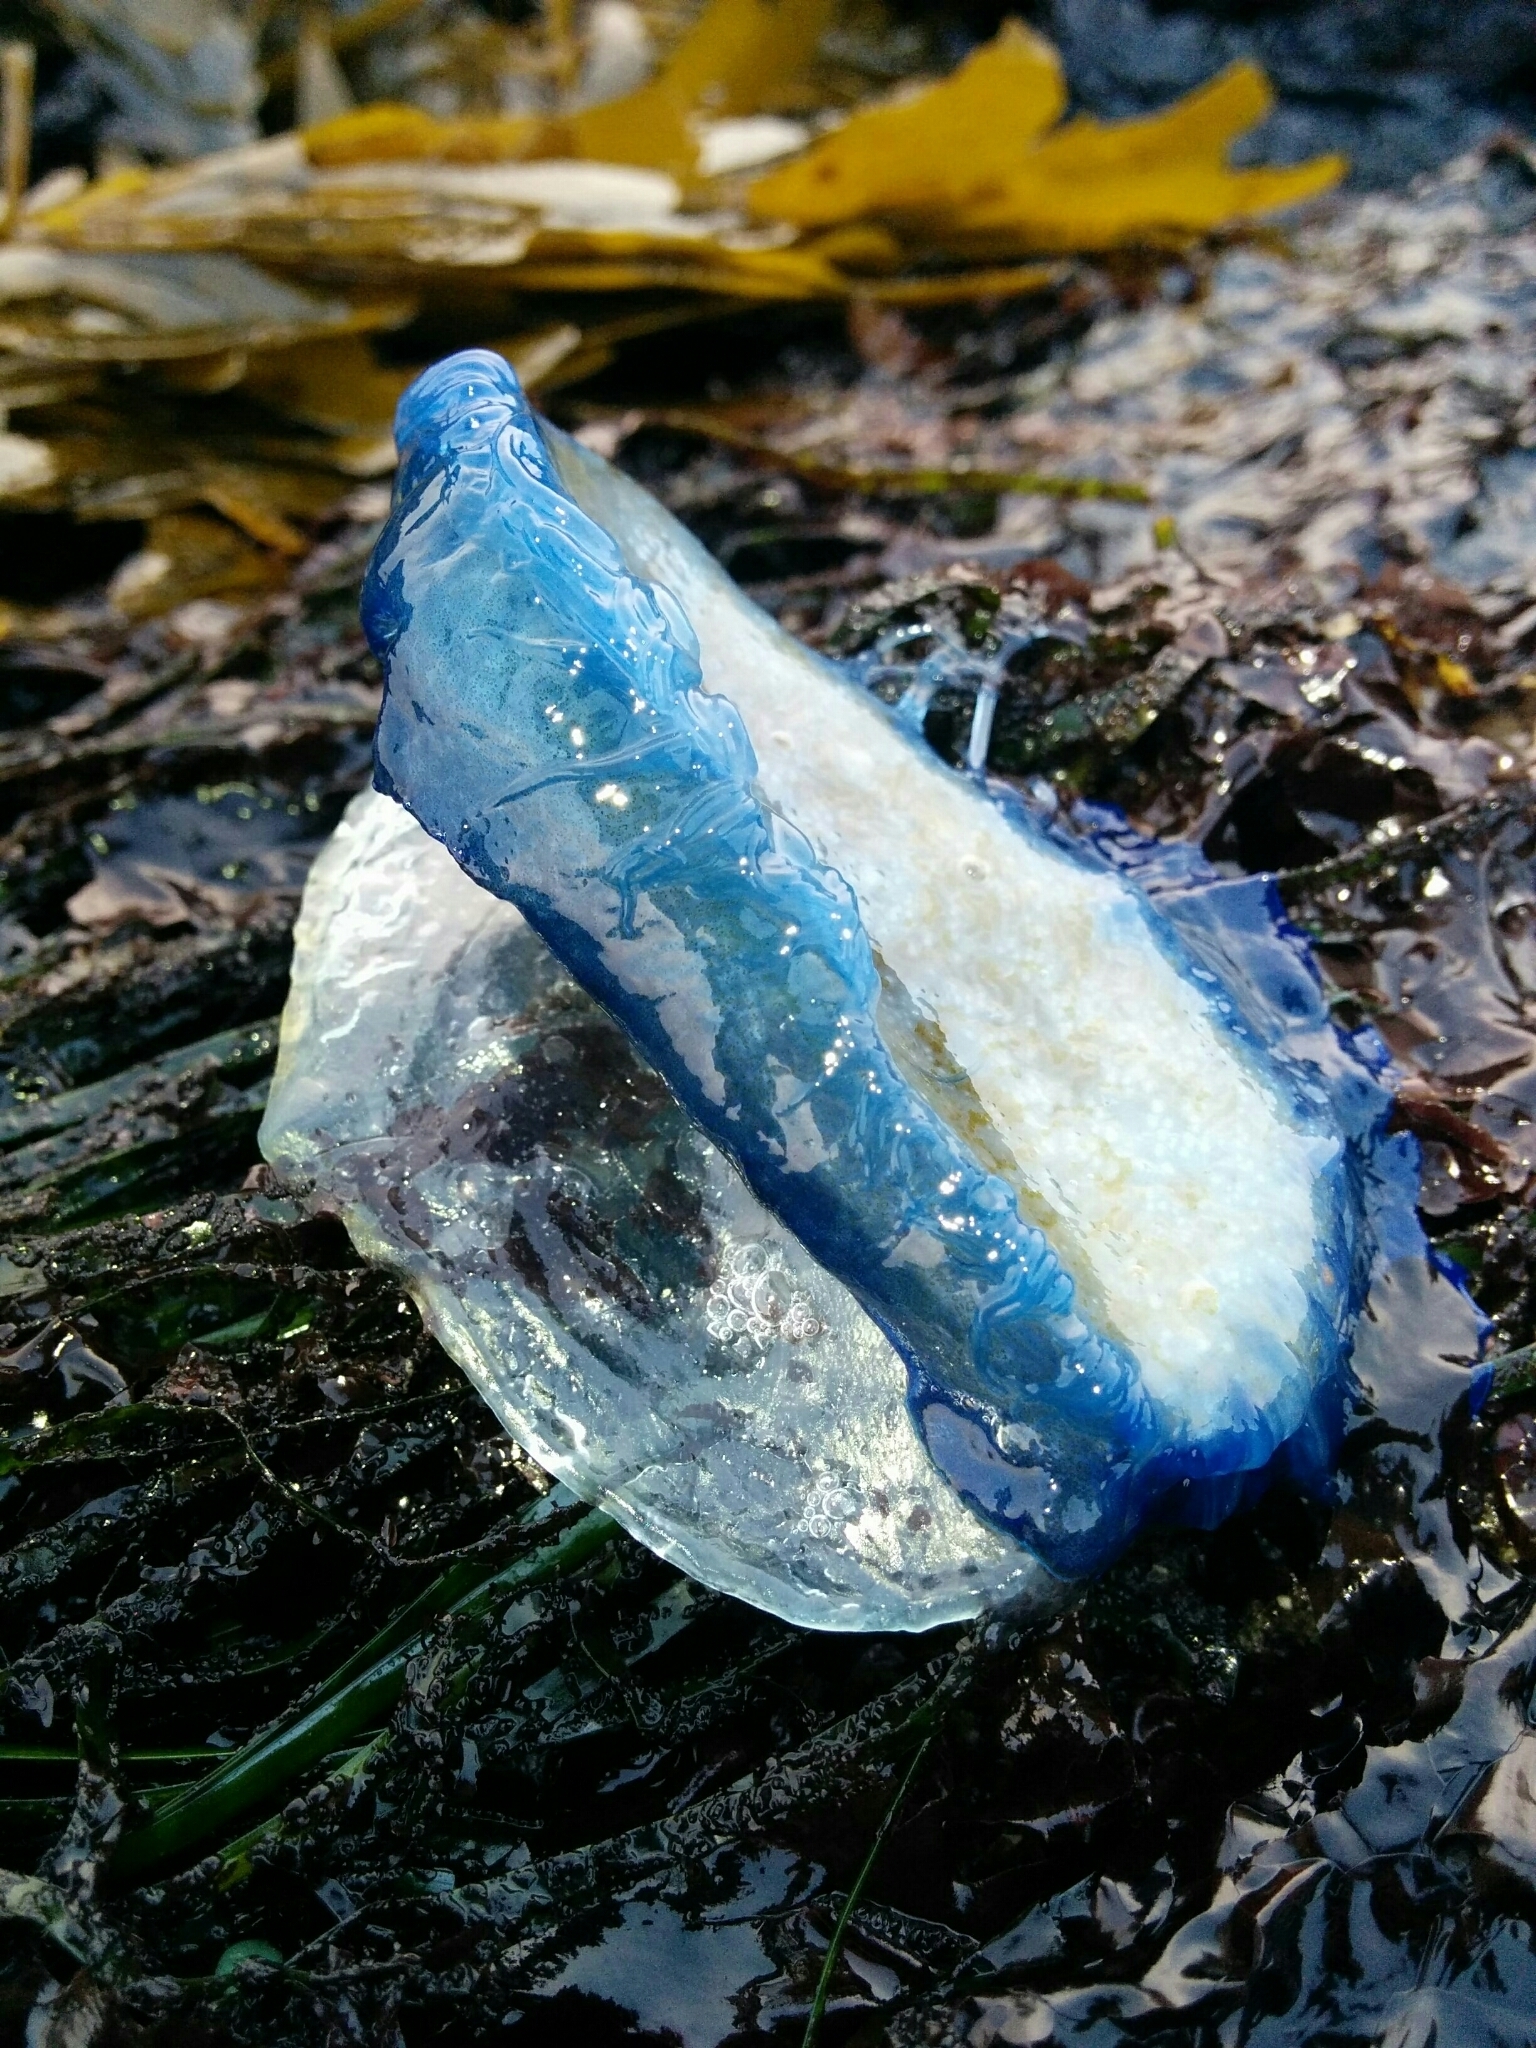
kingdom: Animalia
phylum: Cnidaria
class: Hydrozoa
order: Anthoathecata
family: Porpitidae
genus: Velella
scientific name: Velella velella
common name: By-the-wind-sailor
